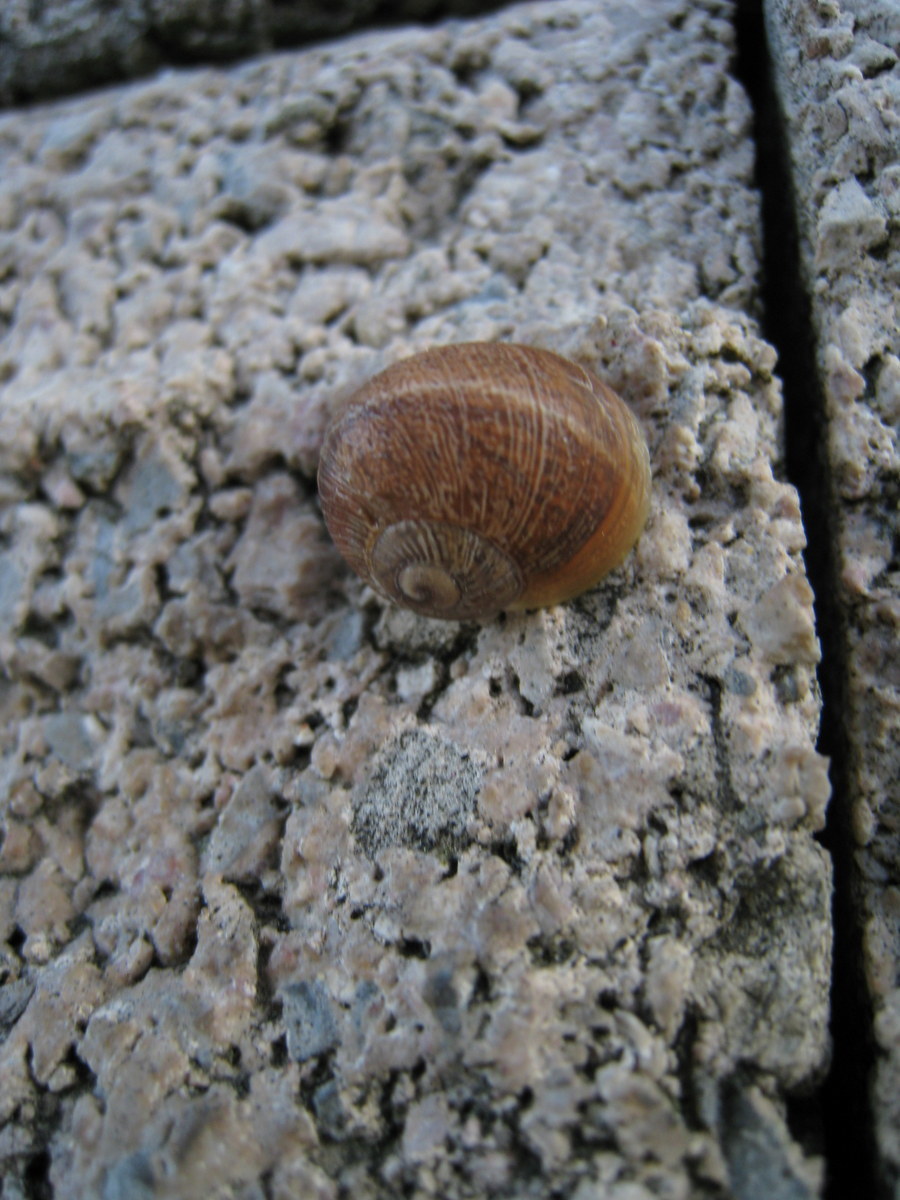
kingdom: Animalia
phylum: Mollusca
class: Gastropoda
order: Stylommatophora
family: Helicidae
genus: Cornu
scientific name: Cornu aspersum
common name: Brown garden snail
